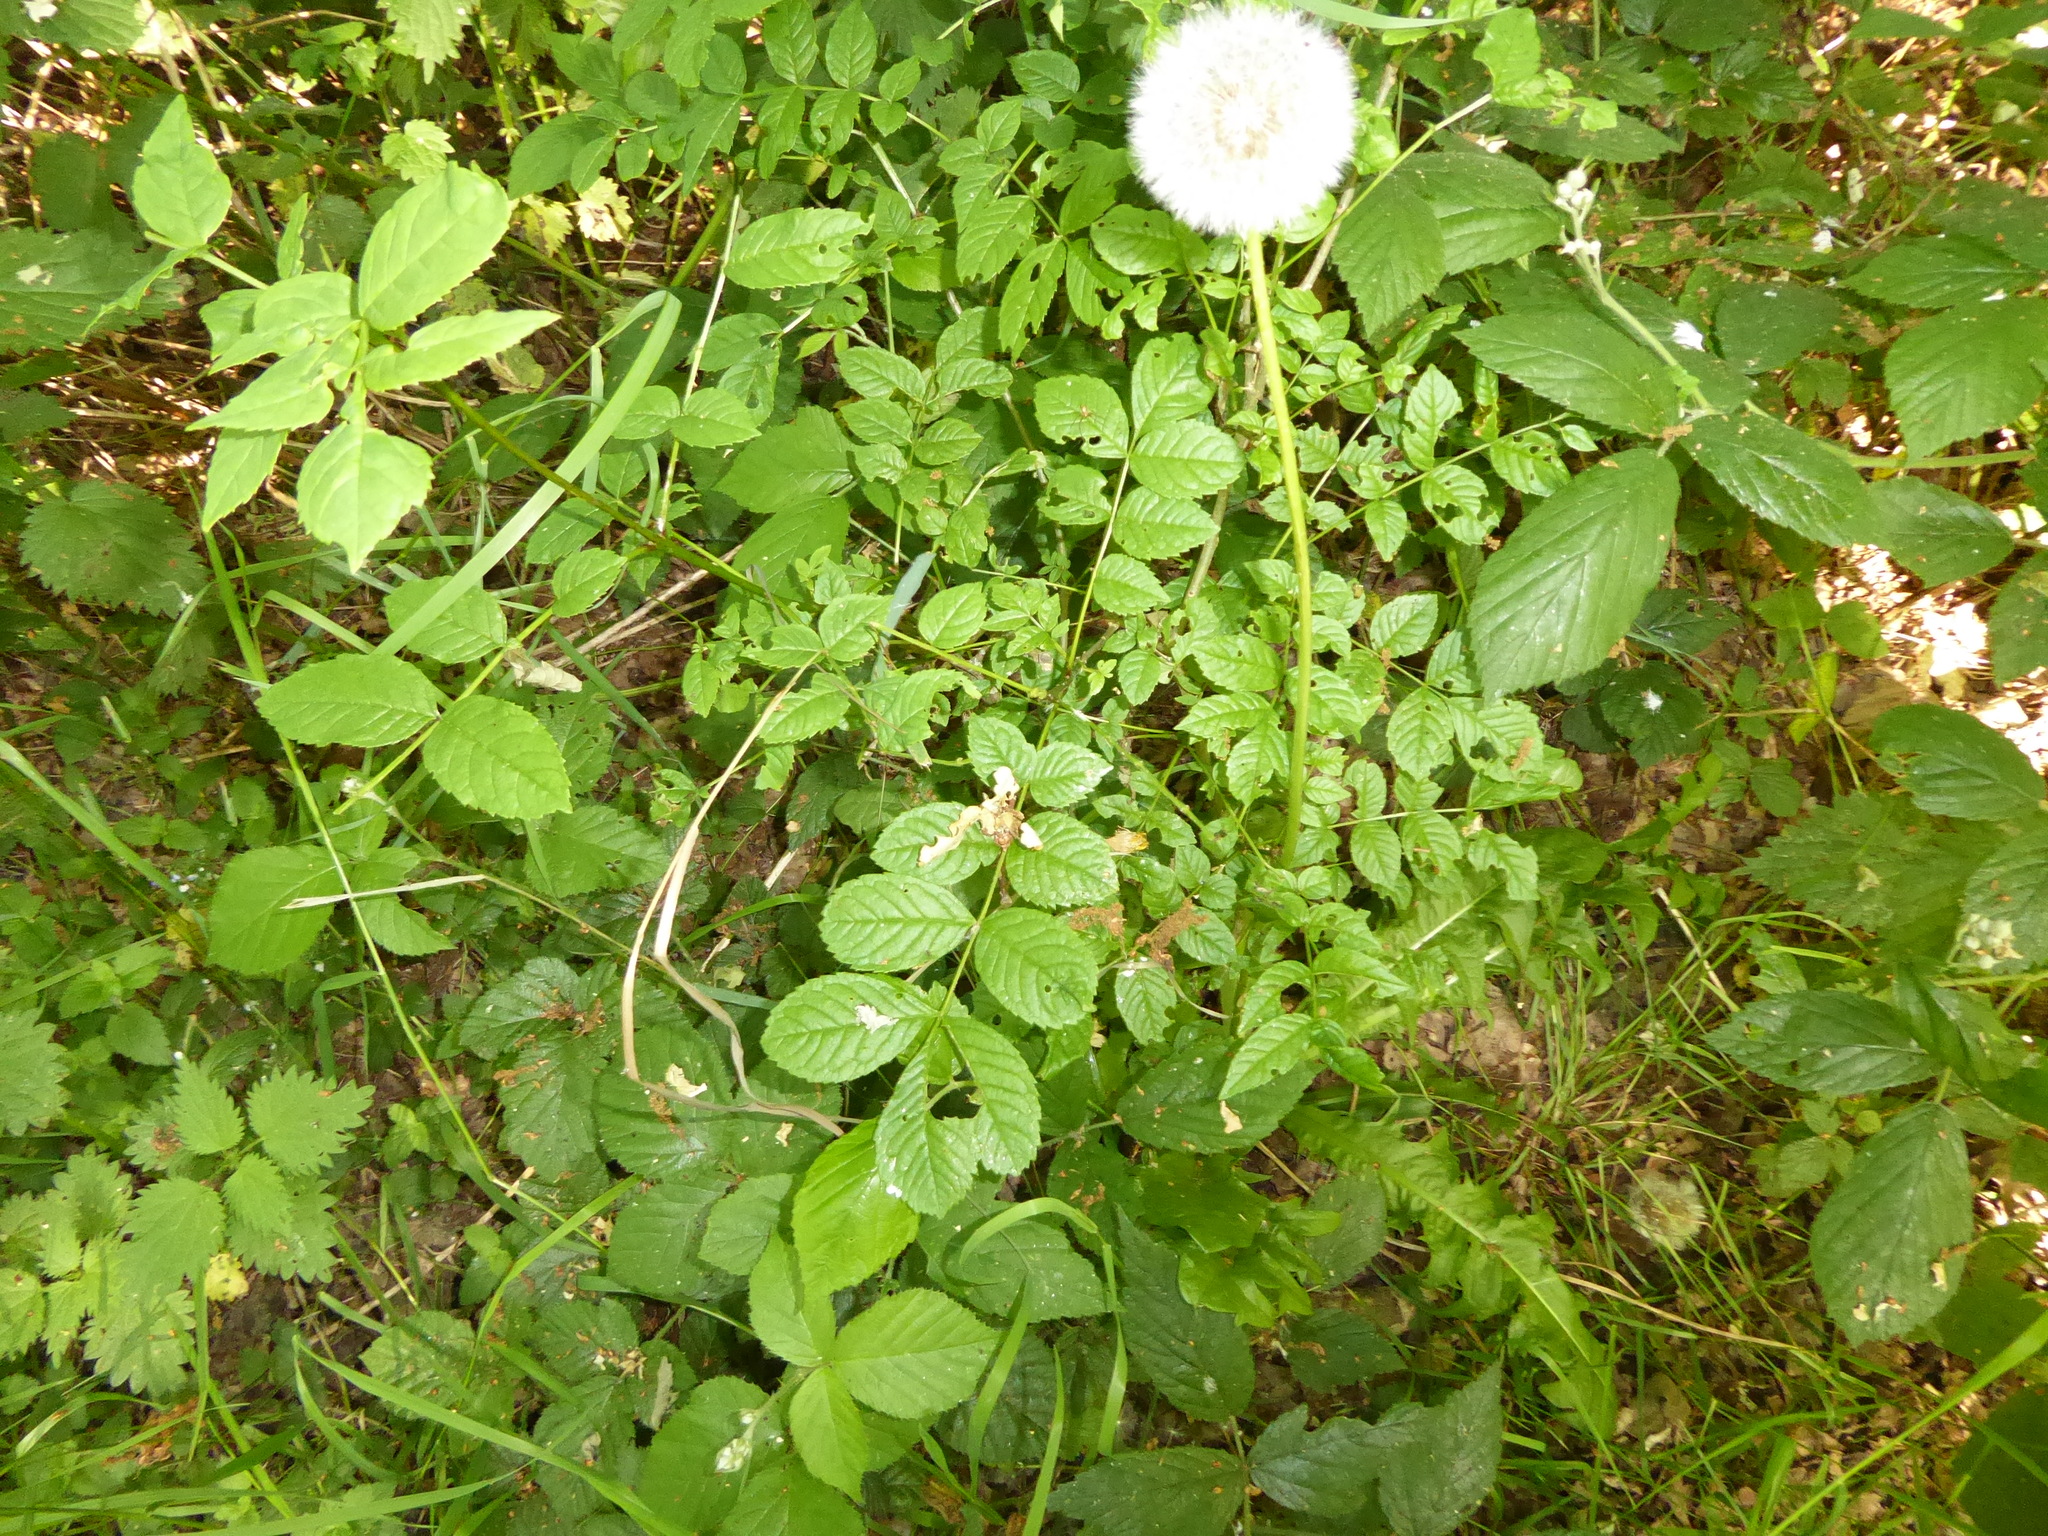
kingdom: Plantae
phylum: Tracheophyta
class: Magnoliopsida
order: Lamiales
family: Oleaceae
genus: Fraxinus
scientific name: Fraxinus excelsior
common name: European ash
